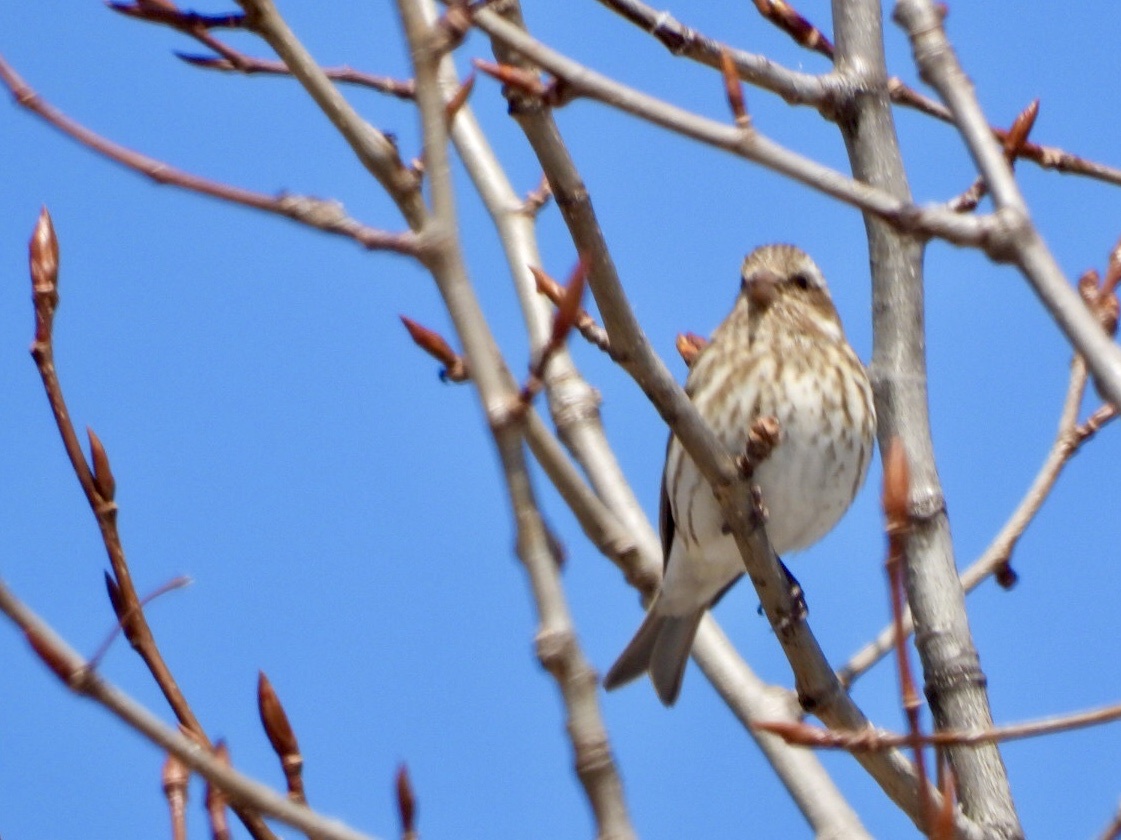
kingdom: Animalia
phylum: Chordata
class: Aves
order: Passeriformes
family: Fringillidae
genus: Haemorhous
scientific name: Haemorhous purpureus
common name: Purple finch
